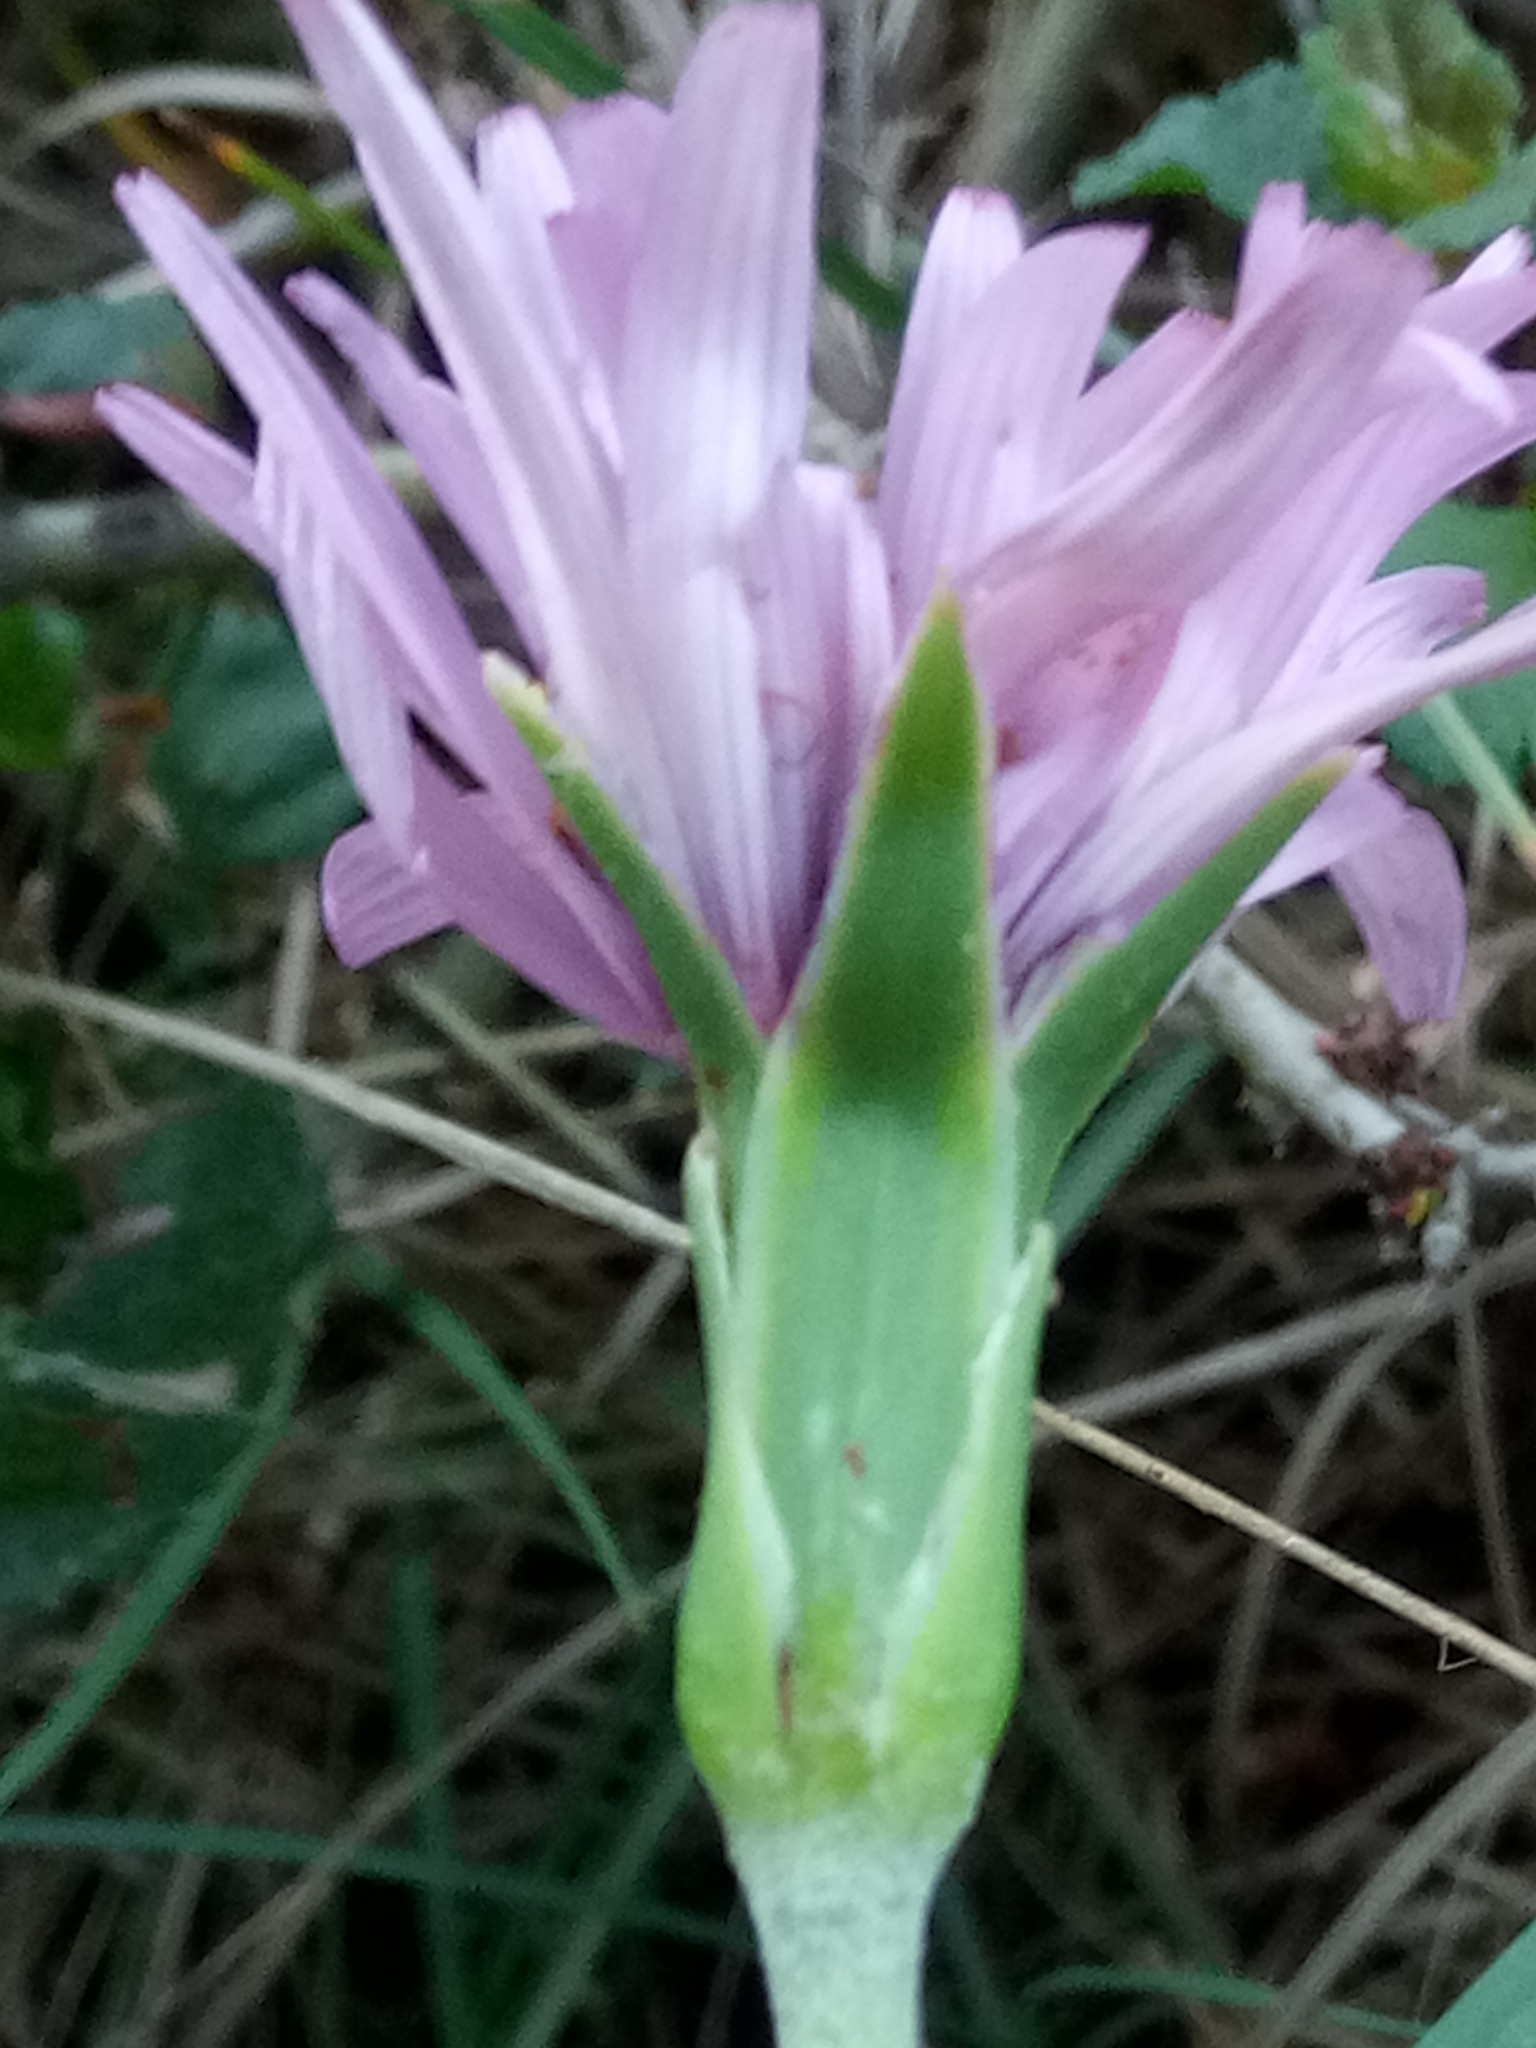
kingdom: Plantae
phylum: Tracheophyta
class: Magnoliopsida
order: Asterales
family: Asteraceae
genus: Pseudopodospermum
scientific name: Pseudopodospermum undulatum
